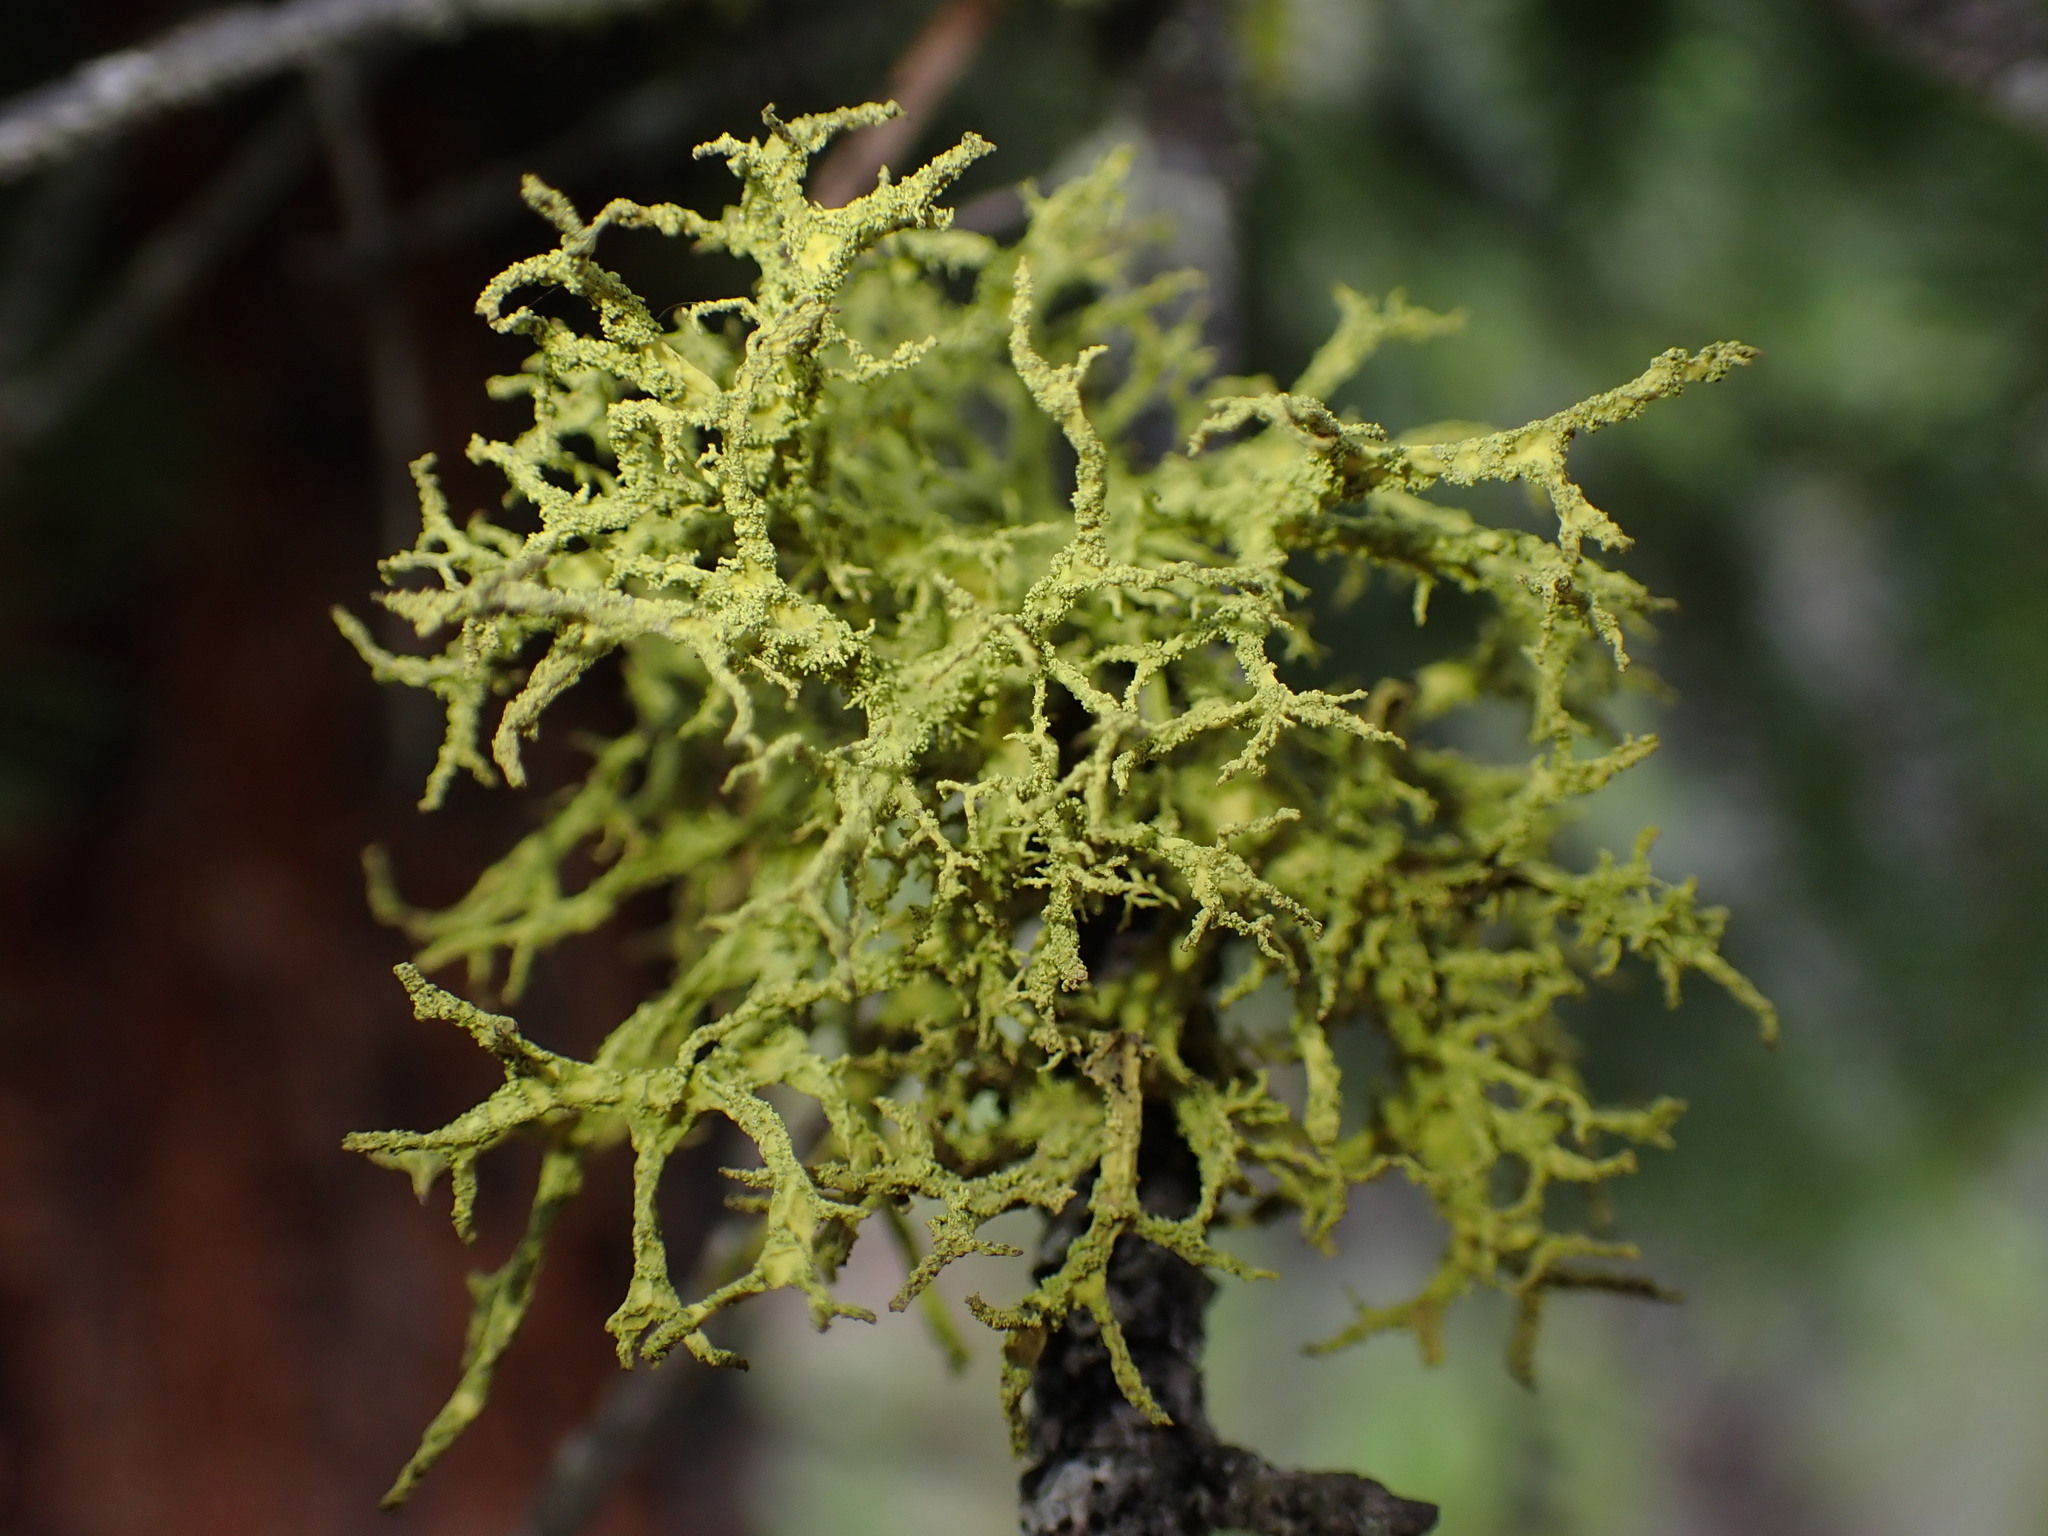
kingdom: Fungi
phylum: Ascomycota
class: Lecanoromycetes
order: Lecanorales
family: Parmeliaceae
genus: Letharia
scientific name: Letharia vulpina
